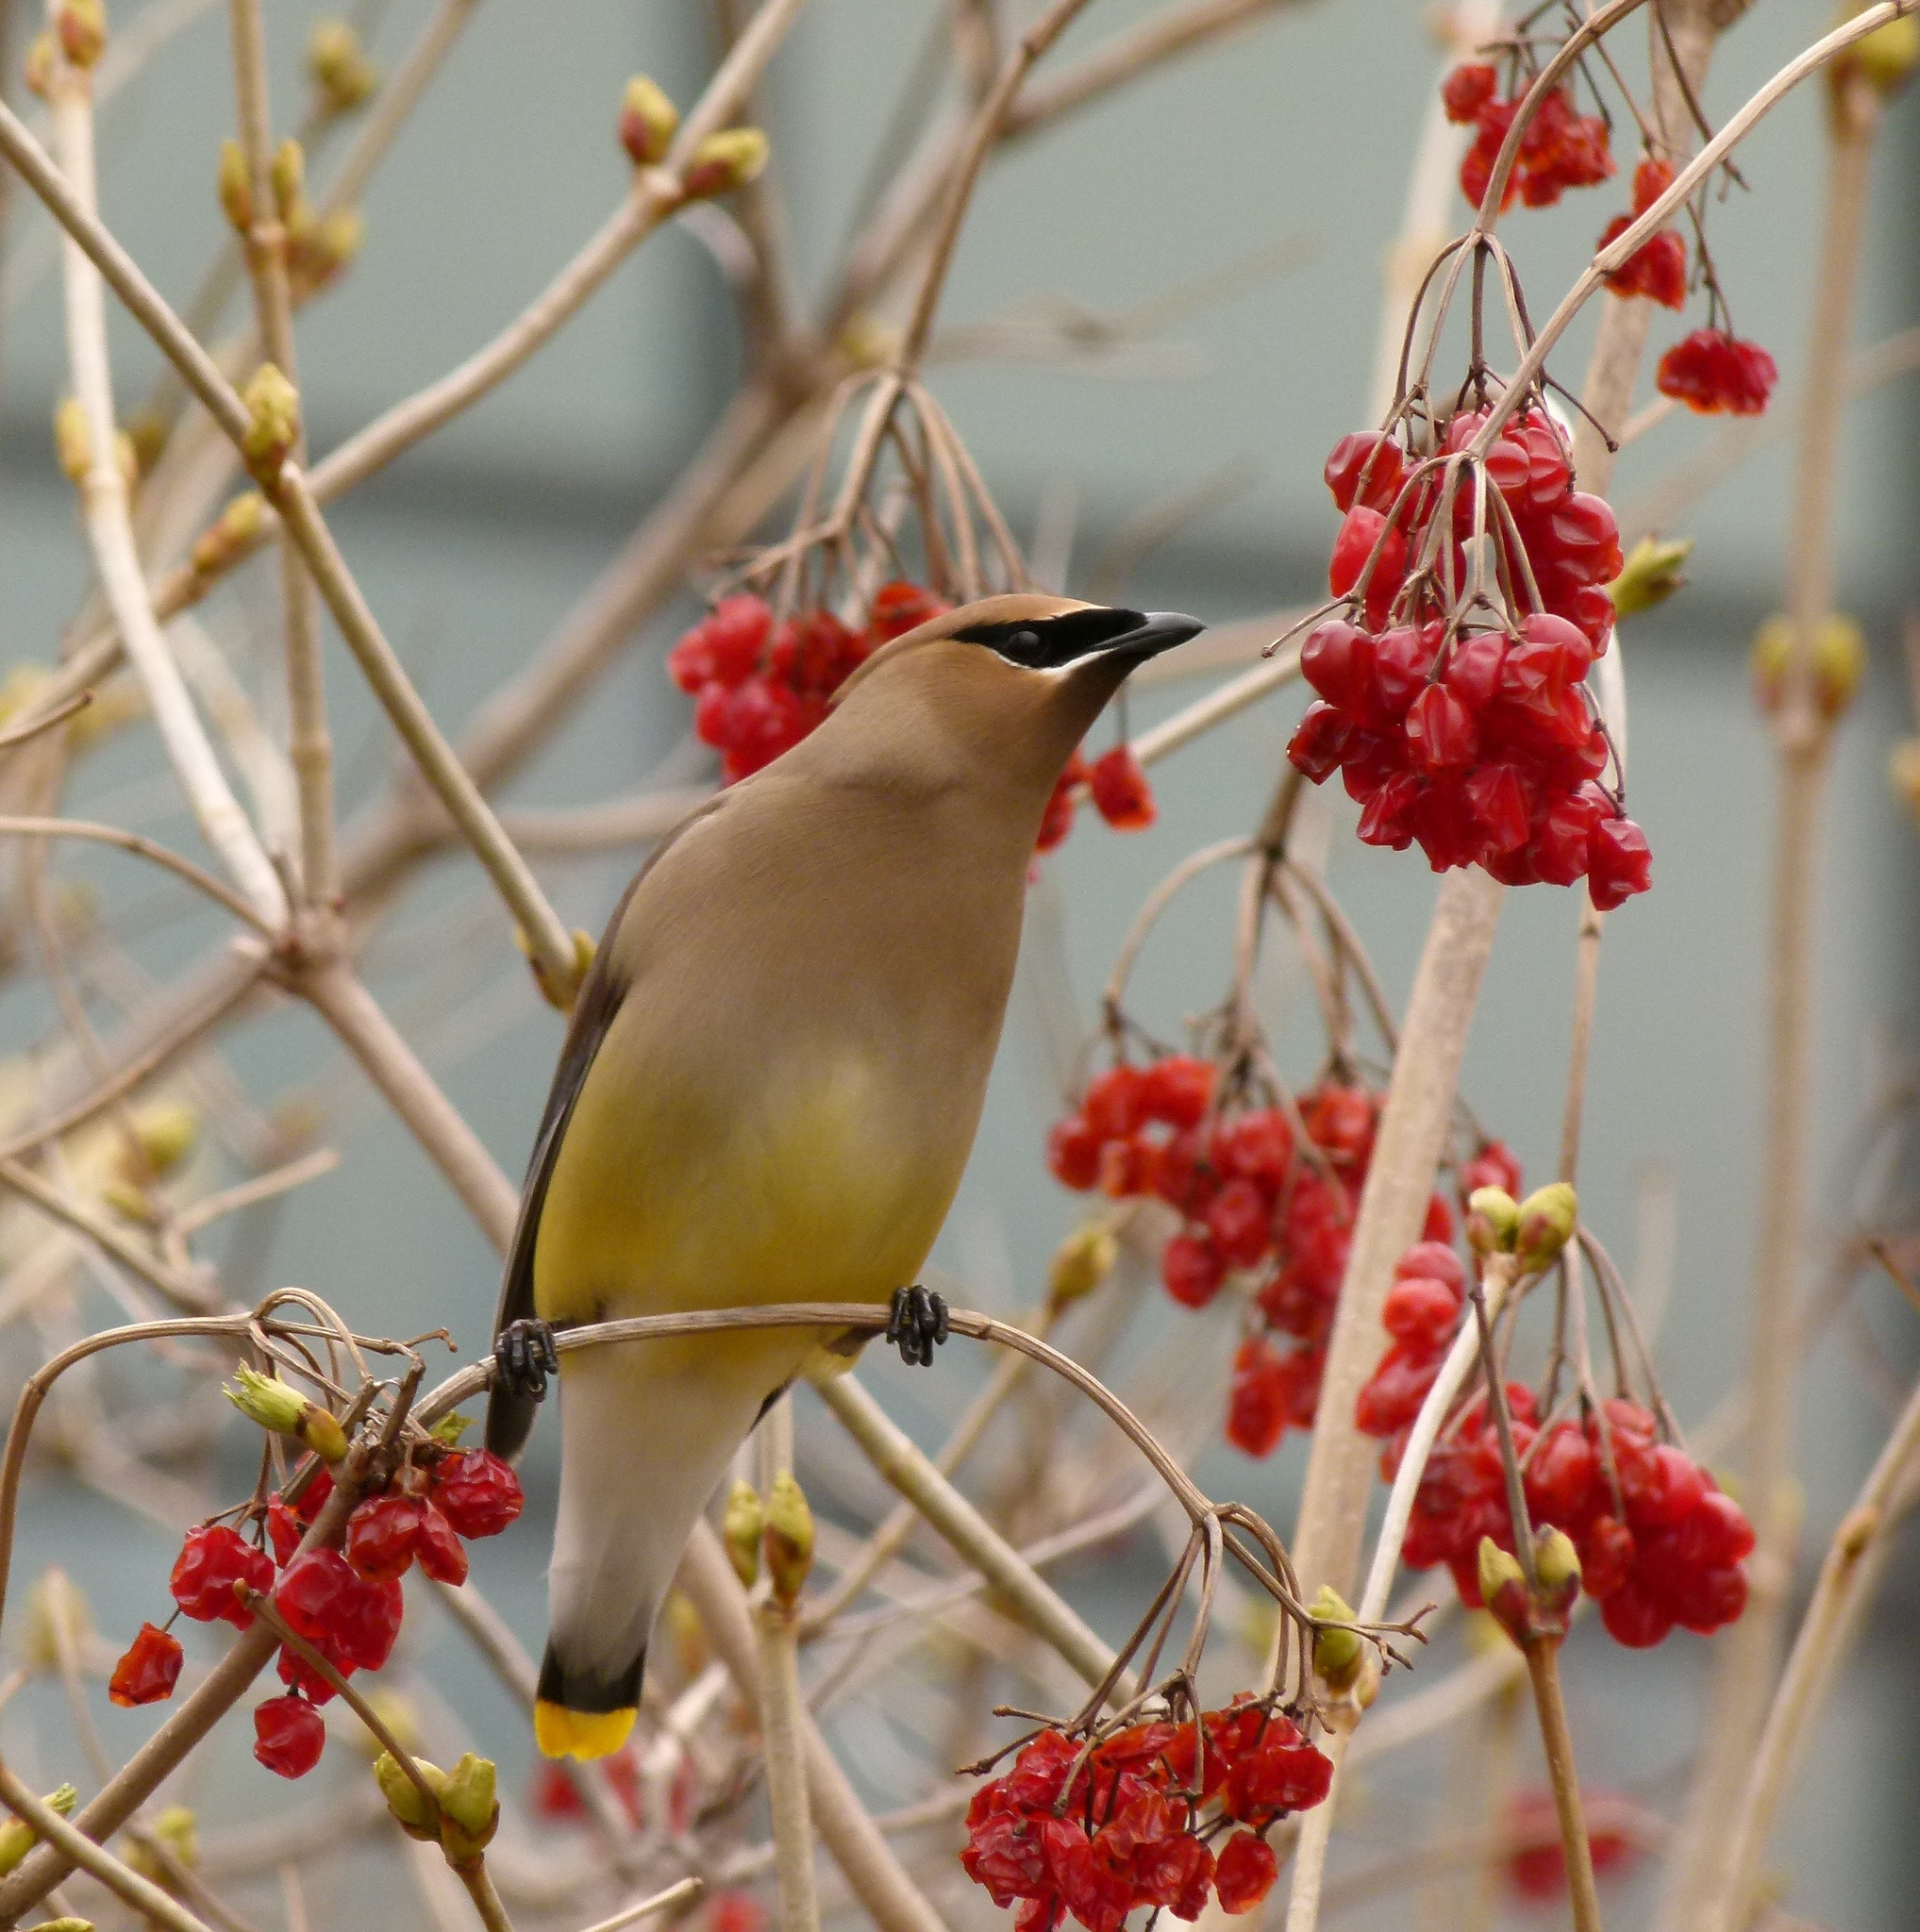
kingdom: Animalia
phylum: Chordata
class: Aves
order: Passeriformes
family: Bombycillidae
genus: Bombycilla
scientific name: Bombycilla cedrorum
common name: Cedar waxwing
